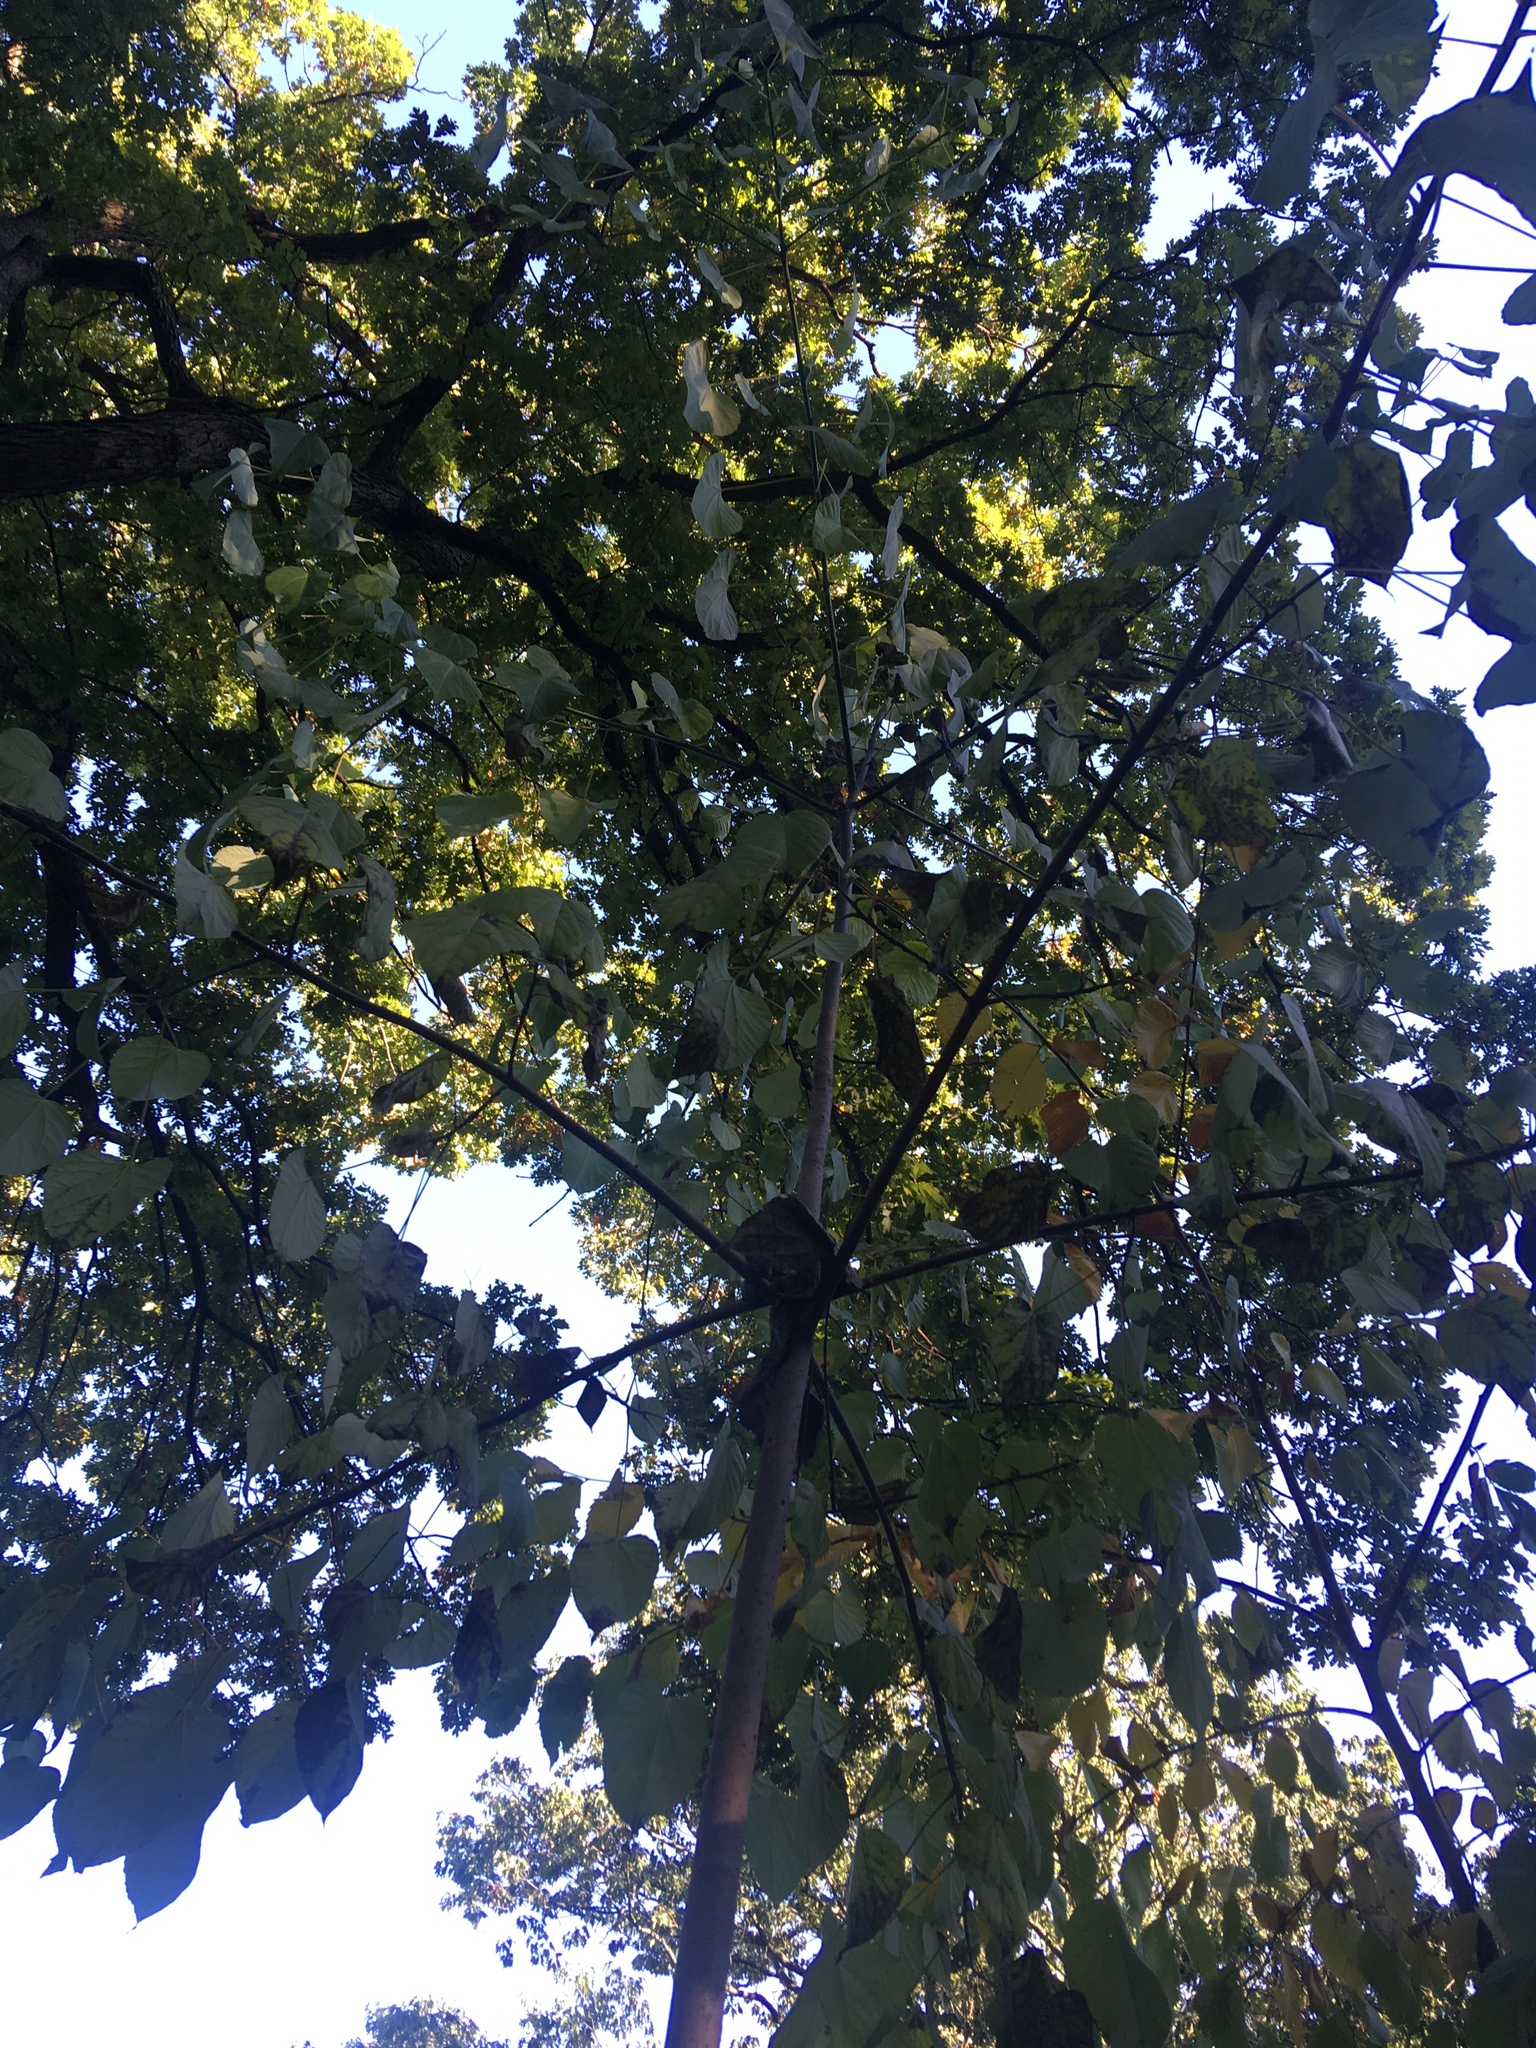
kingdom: Plantae
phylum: Tracheophyta
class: Magnoliopsida
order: Malpighiales
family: Salicaceae
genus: Idesia
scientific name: Idesia polycarpa
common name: Idesia tree
